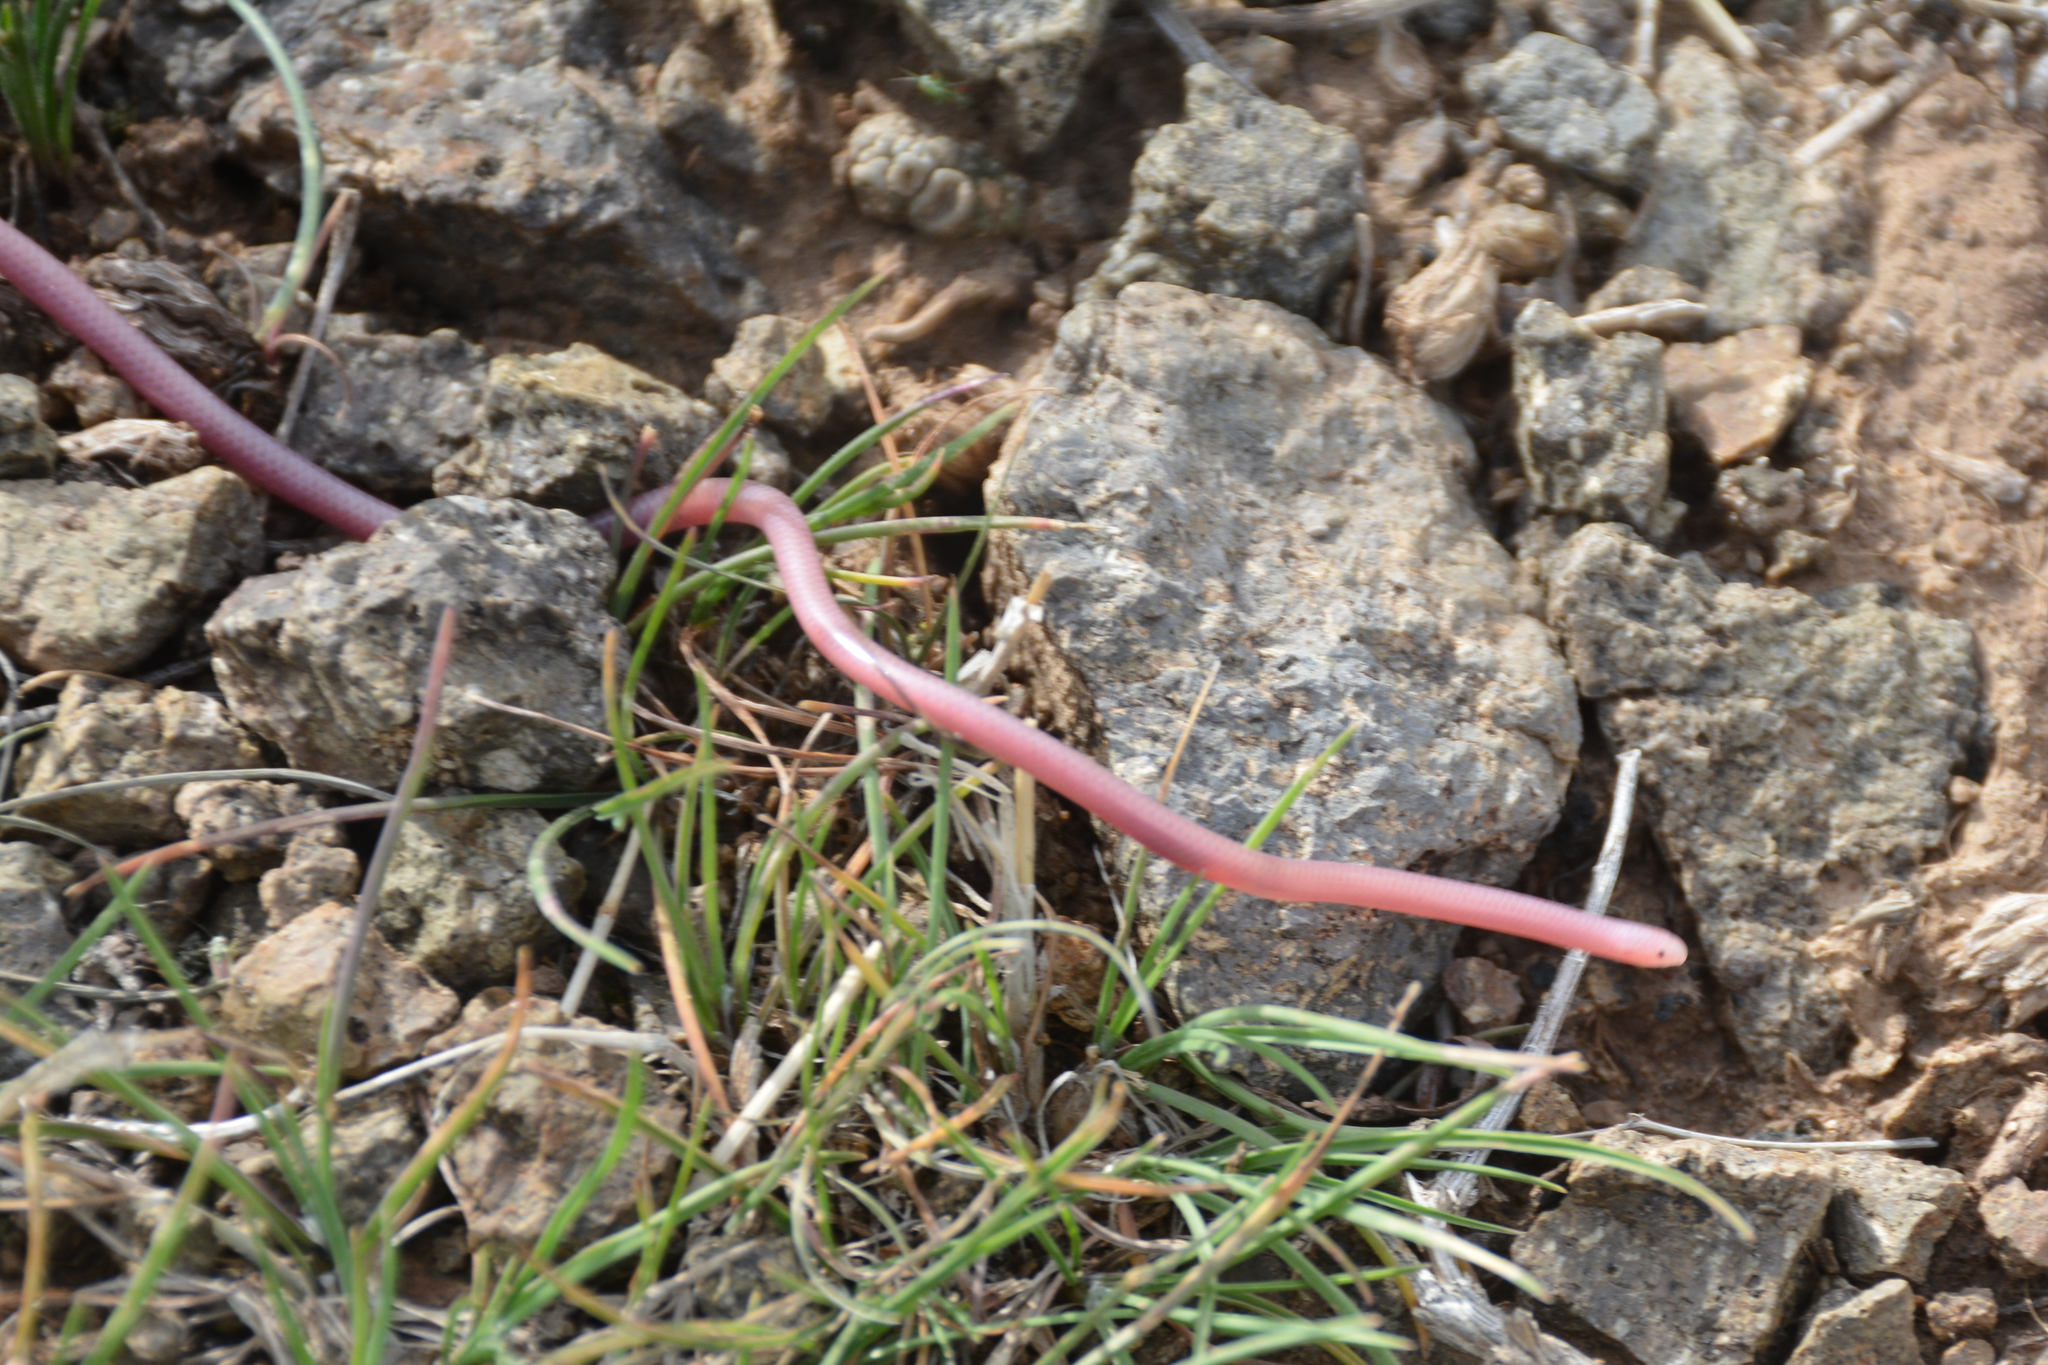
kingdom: Animalia
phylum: Chordata
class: Squamata
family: Leptotyphlopidae
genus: Myriopholis
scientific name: Myriopholis macrorhyncha
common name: Hook-snouted worm snake
